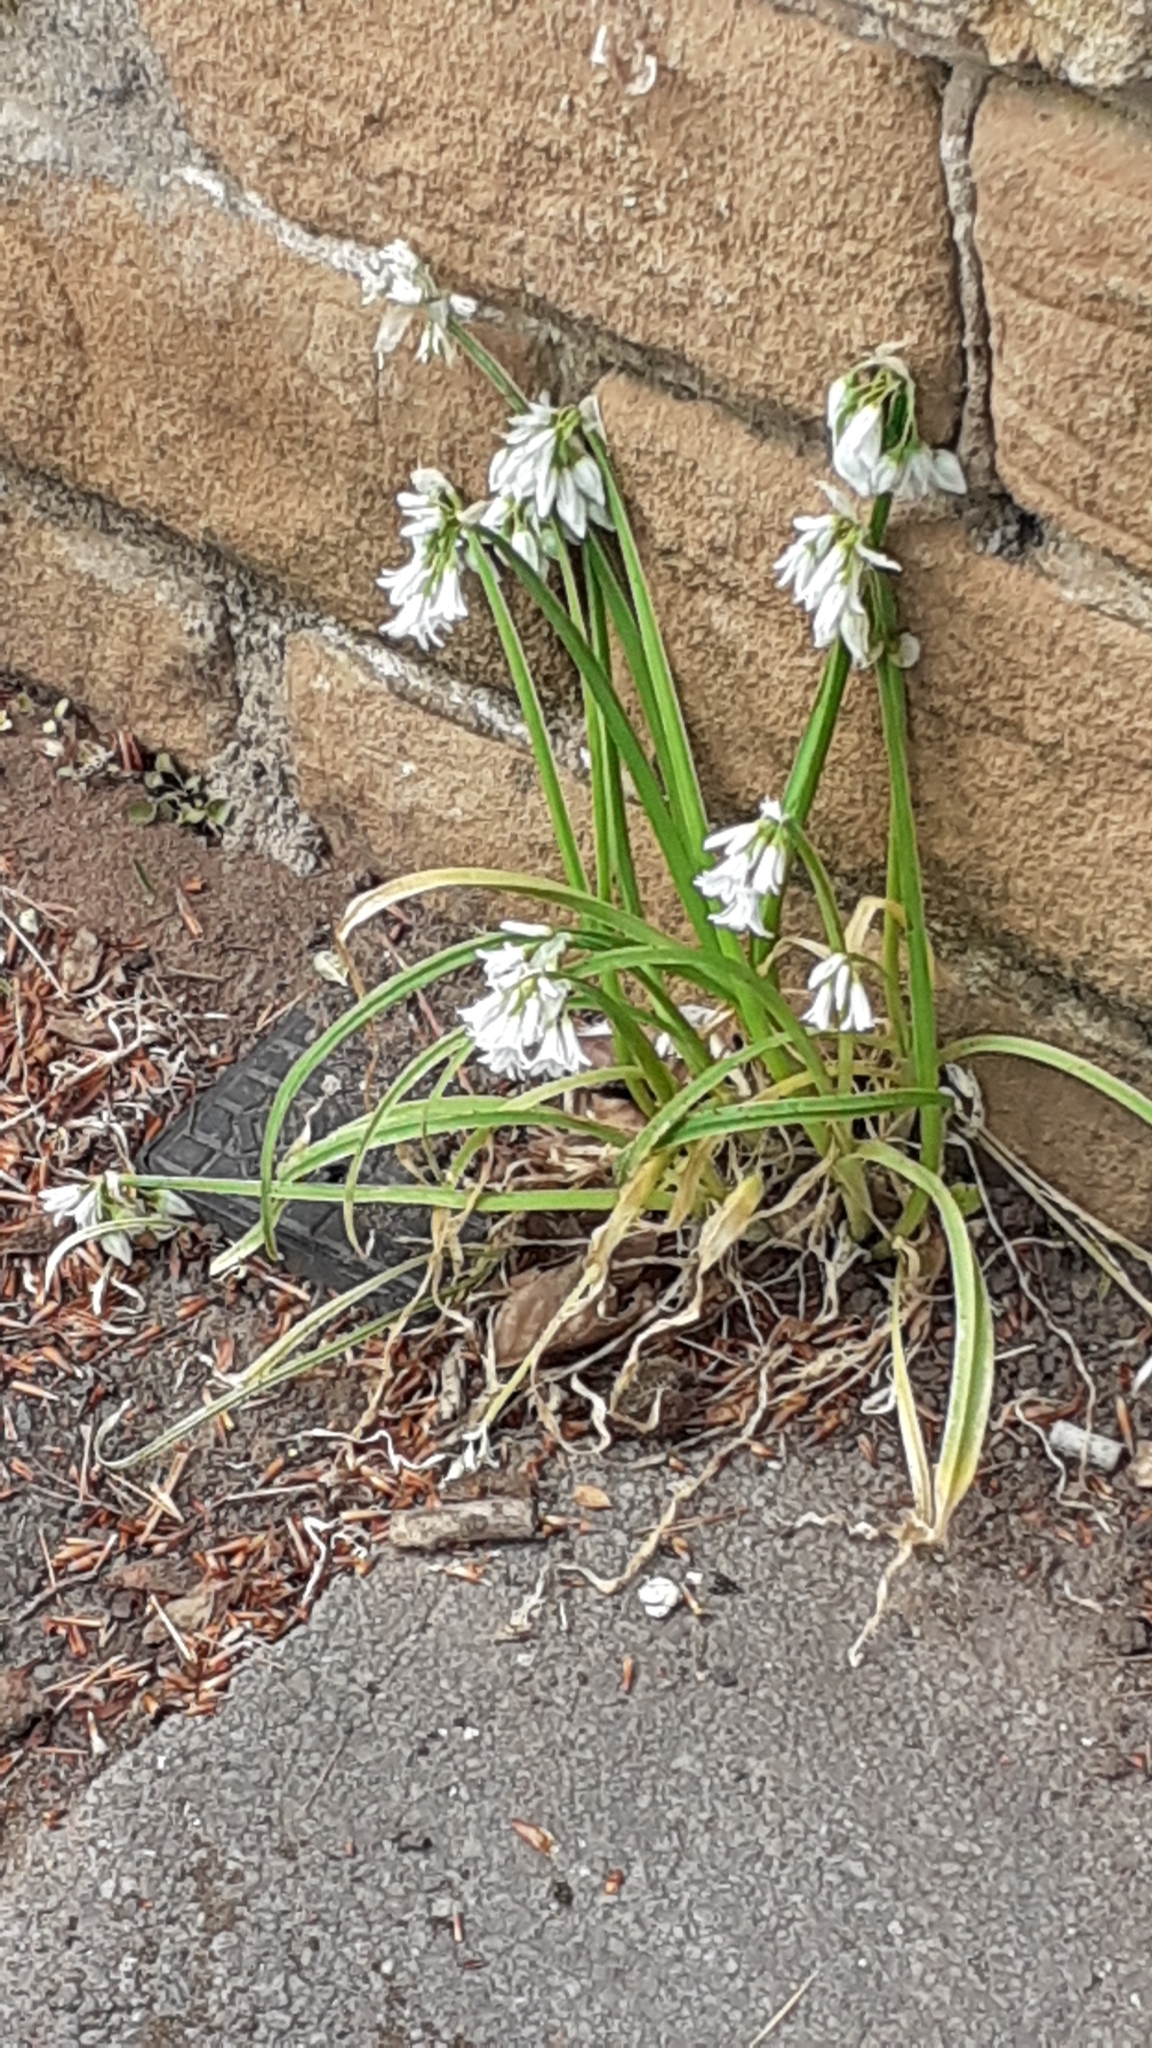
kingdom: Plantae
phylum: Tracheophyta
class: Liliopsida
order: Asparagales
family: Amaryllidaceae
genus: Allium
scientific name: Allium triquetrum
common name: Three-cornered garlic
